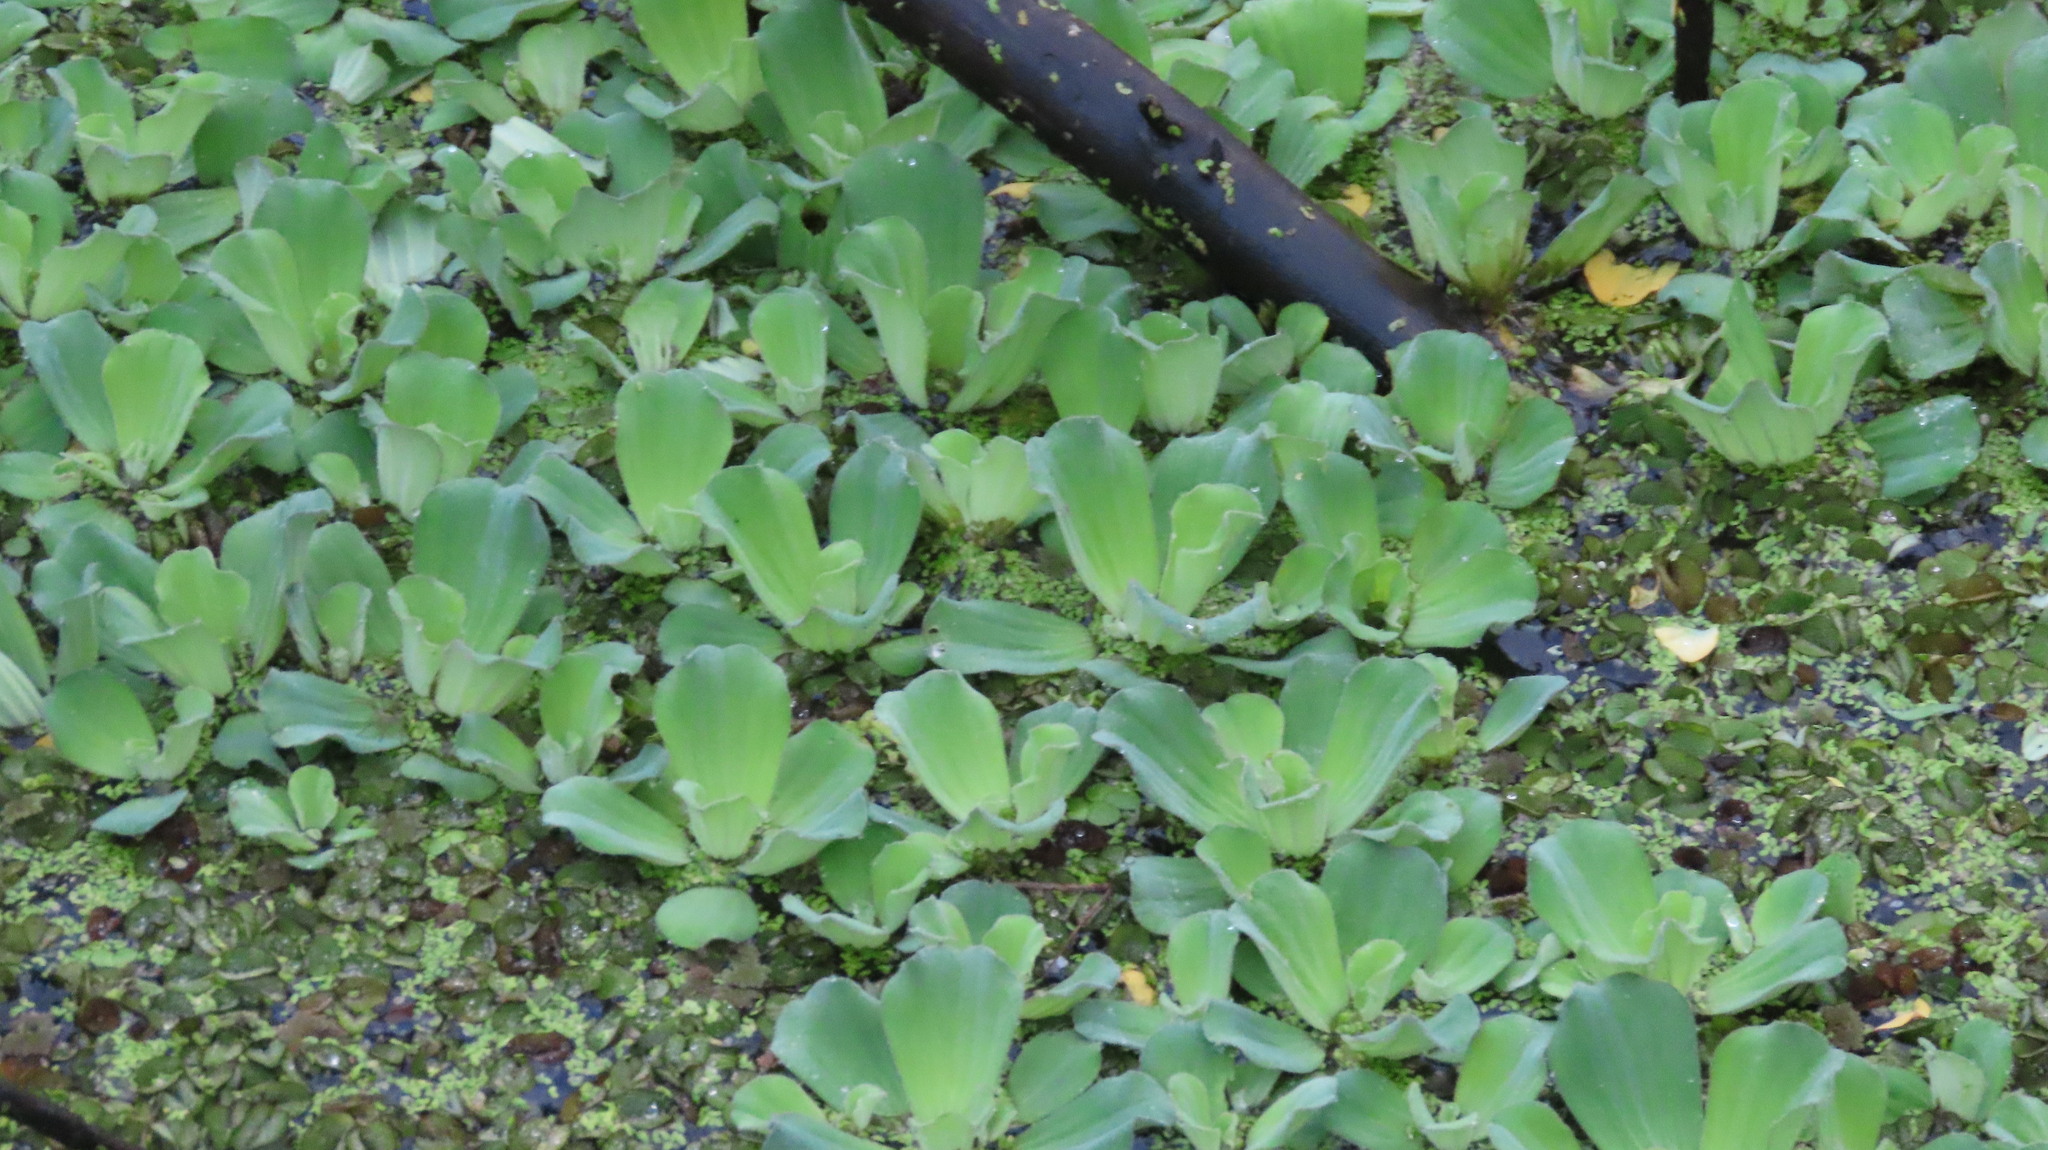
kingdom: Plantae
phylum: Tracheophyta
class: Liliopsida
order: Alismatales
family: Araceae
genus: Pistia
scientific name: Pistia stratiotes
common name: Water lettuce
